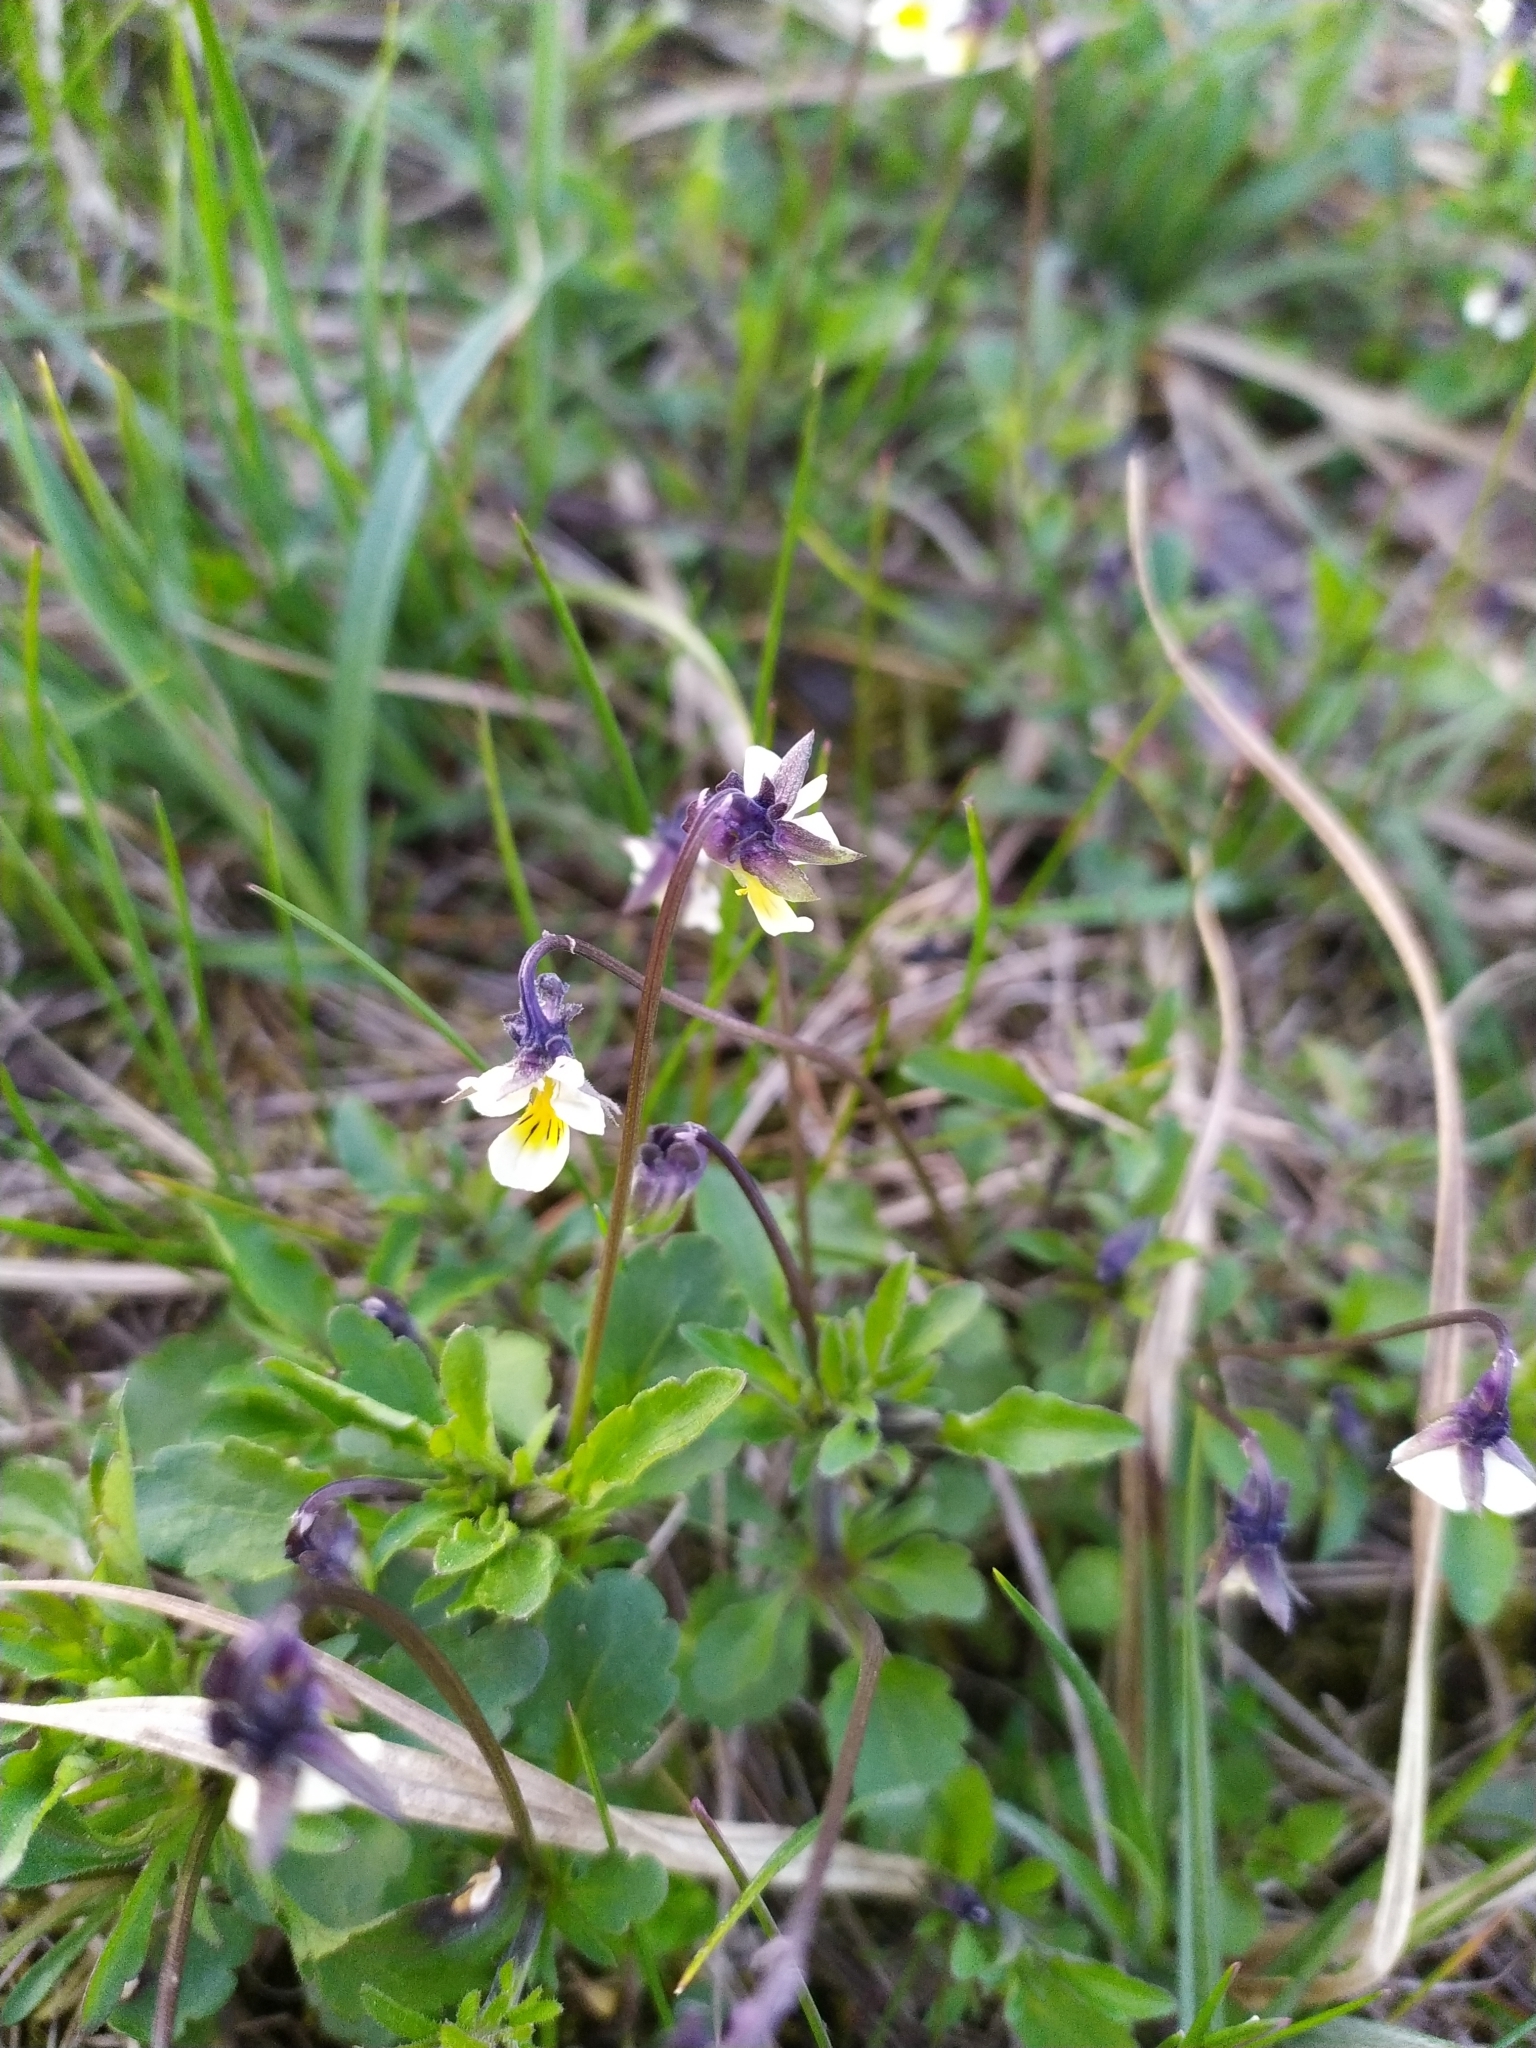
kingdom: Plantae
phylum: Tracheophyta
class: Magnoliopsida
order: Malpighiales
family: Violaceae
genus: Viola
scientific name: Viola arvensis
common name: Field pansy
